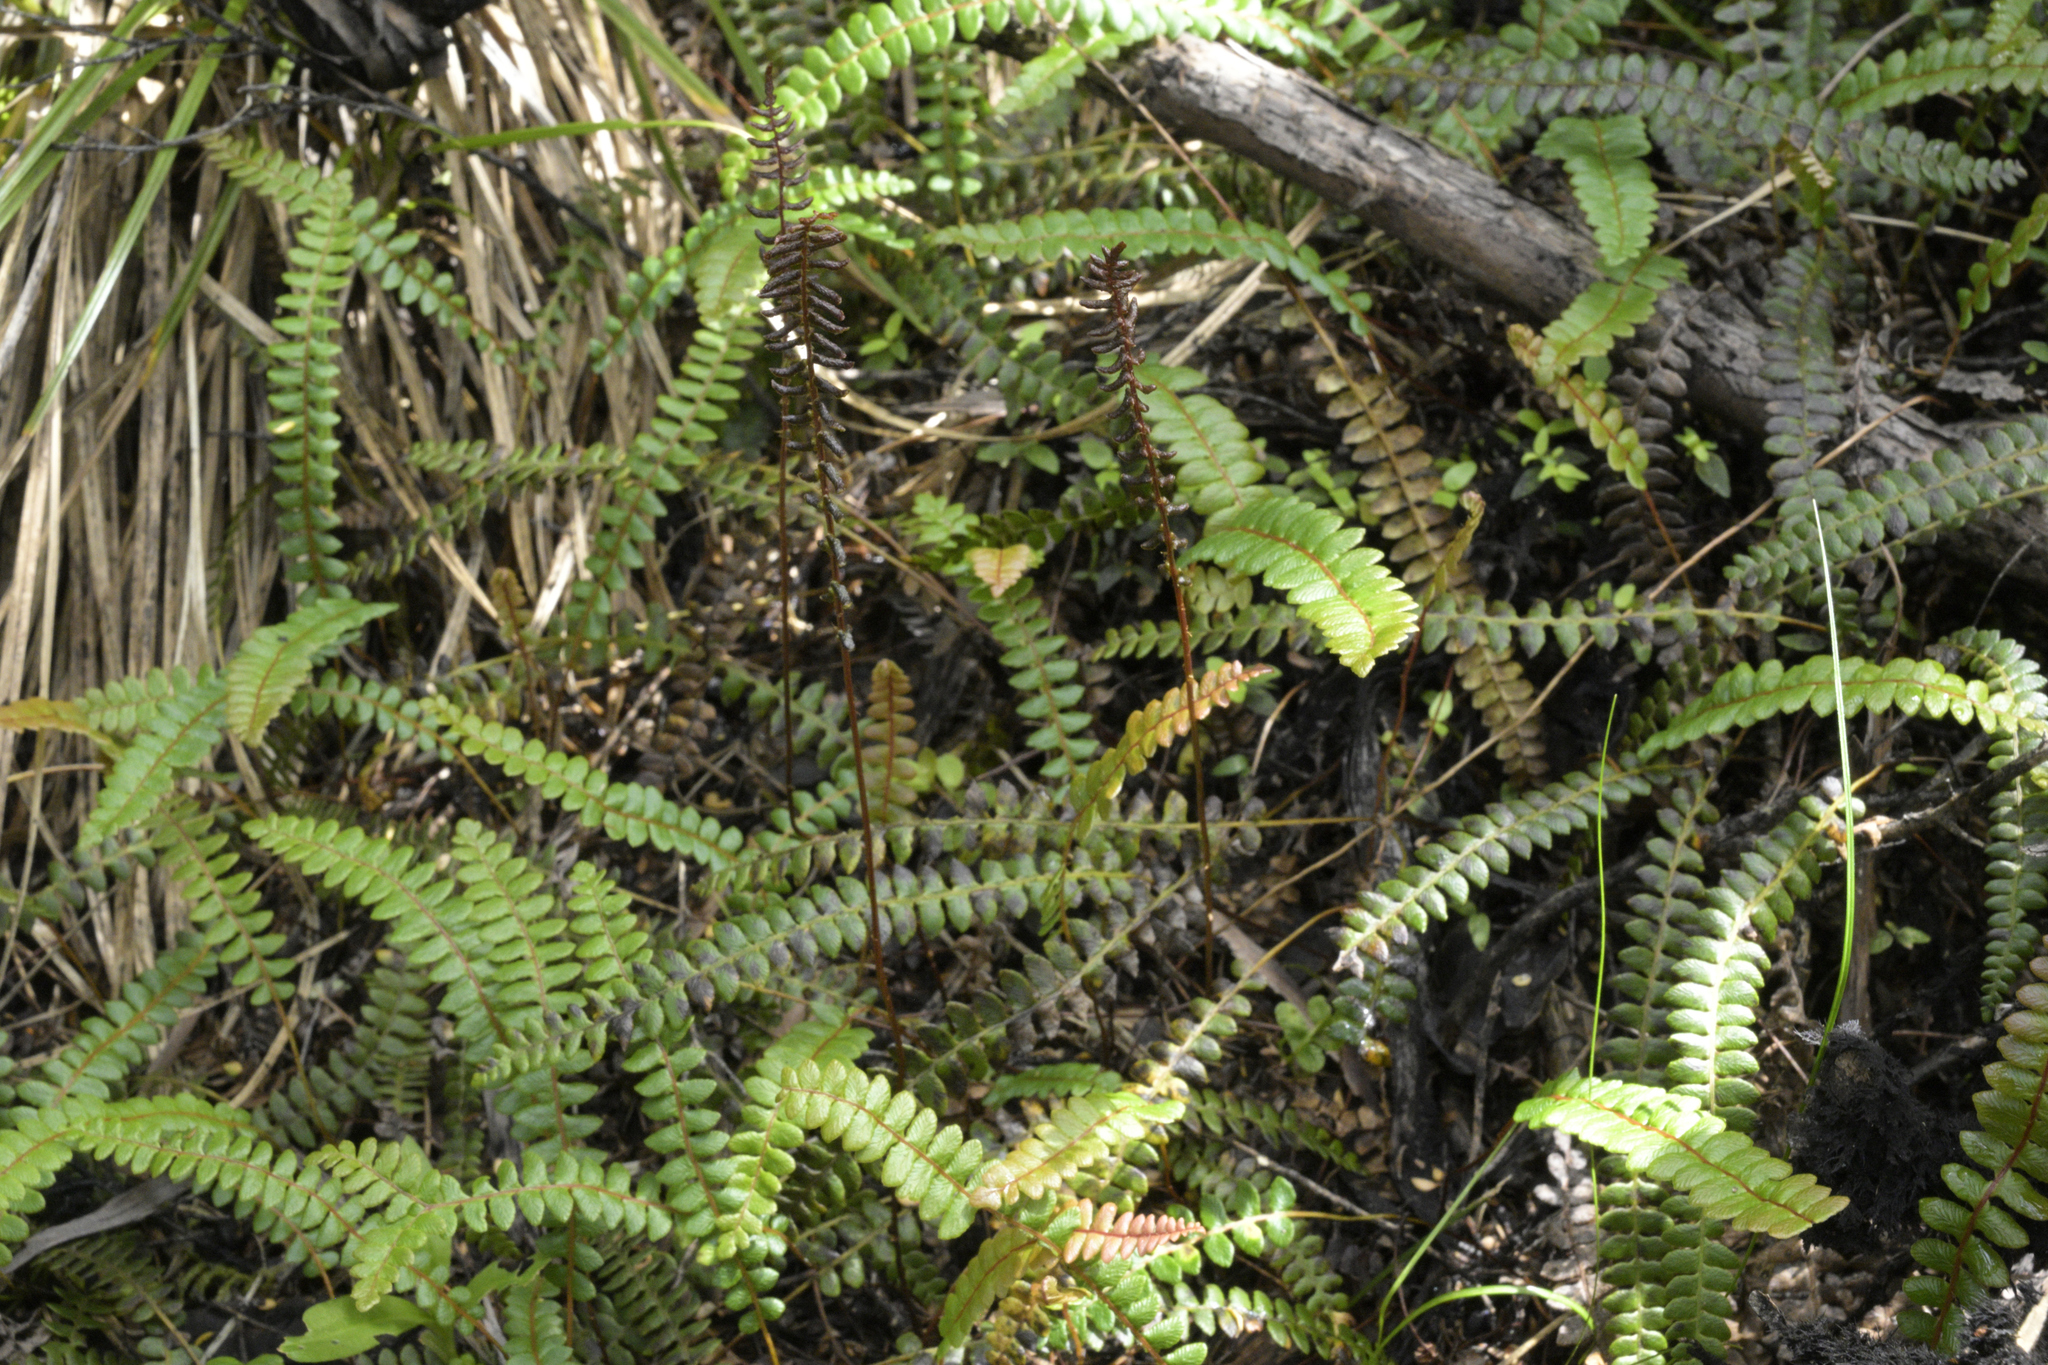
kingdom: Plantae
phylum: Tracheophyta
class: Polypodiopsida
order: Polypodiales
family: Blechnaceae
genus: Austroblechnum
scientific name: Austroblechnum penna-marina
